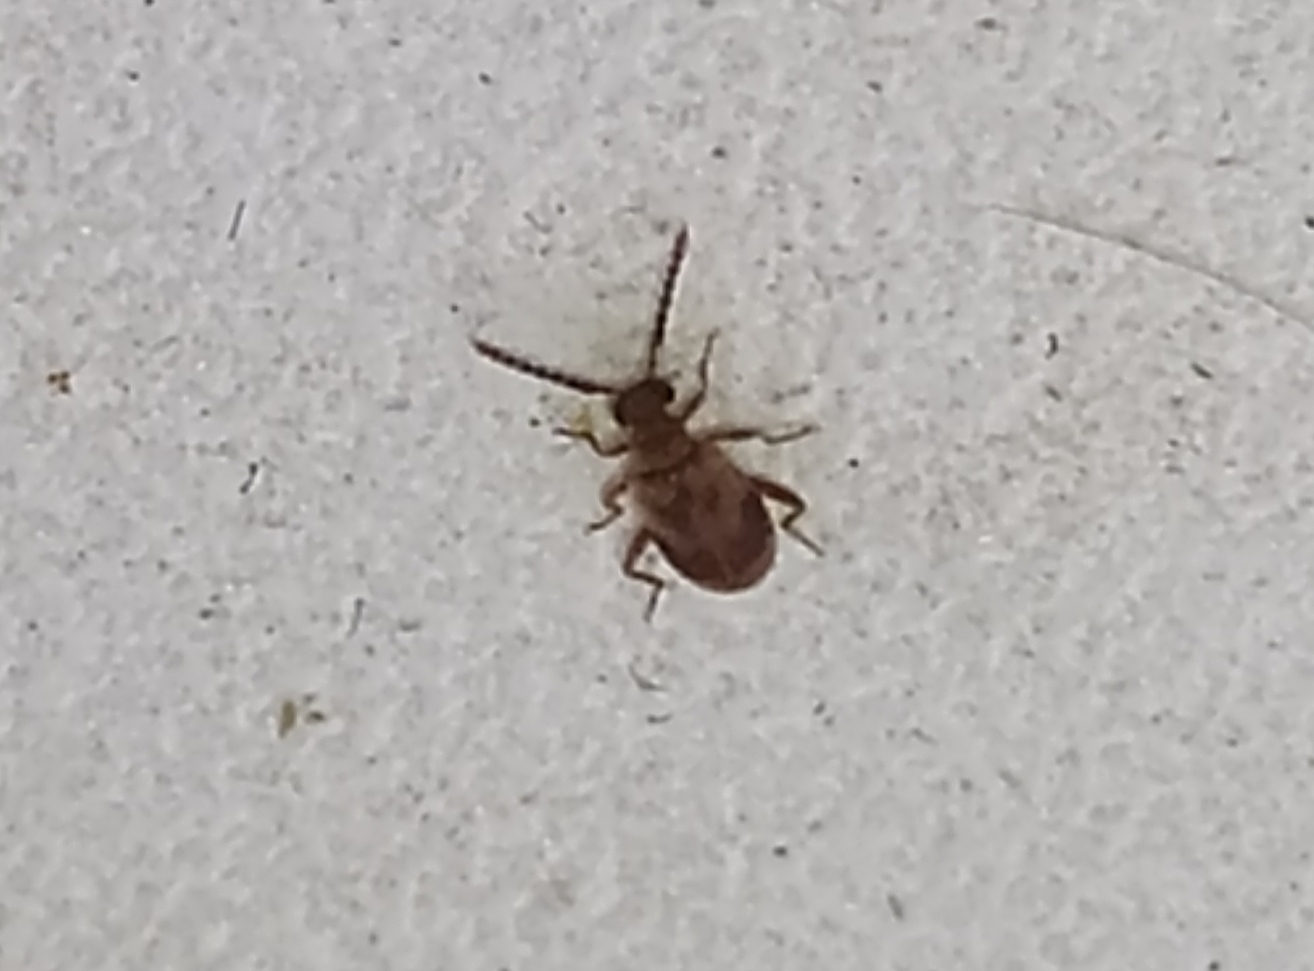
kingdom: Animalia
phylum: Arthropoda
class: Insecta
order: Coleoptera
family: Aderidae
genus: Aderus
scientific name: Aderus populneus
